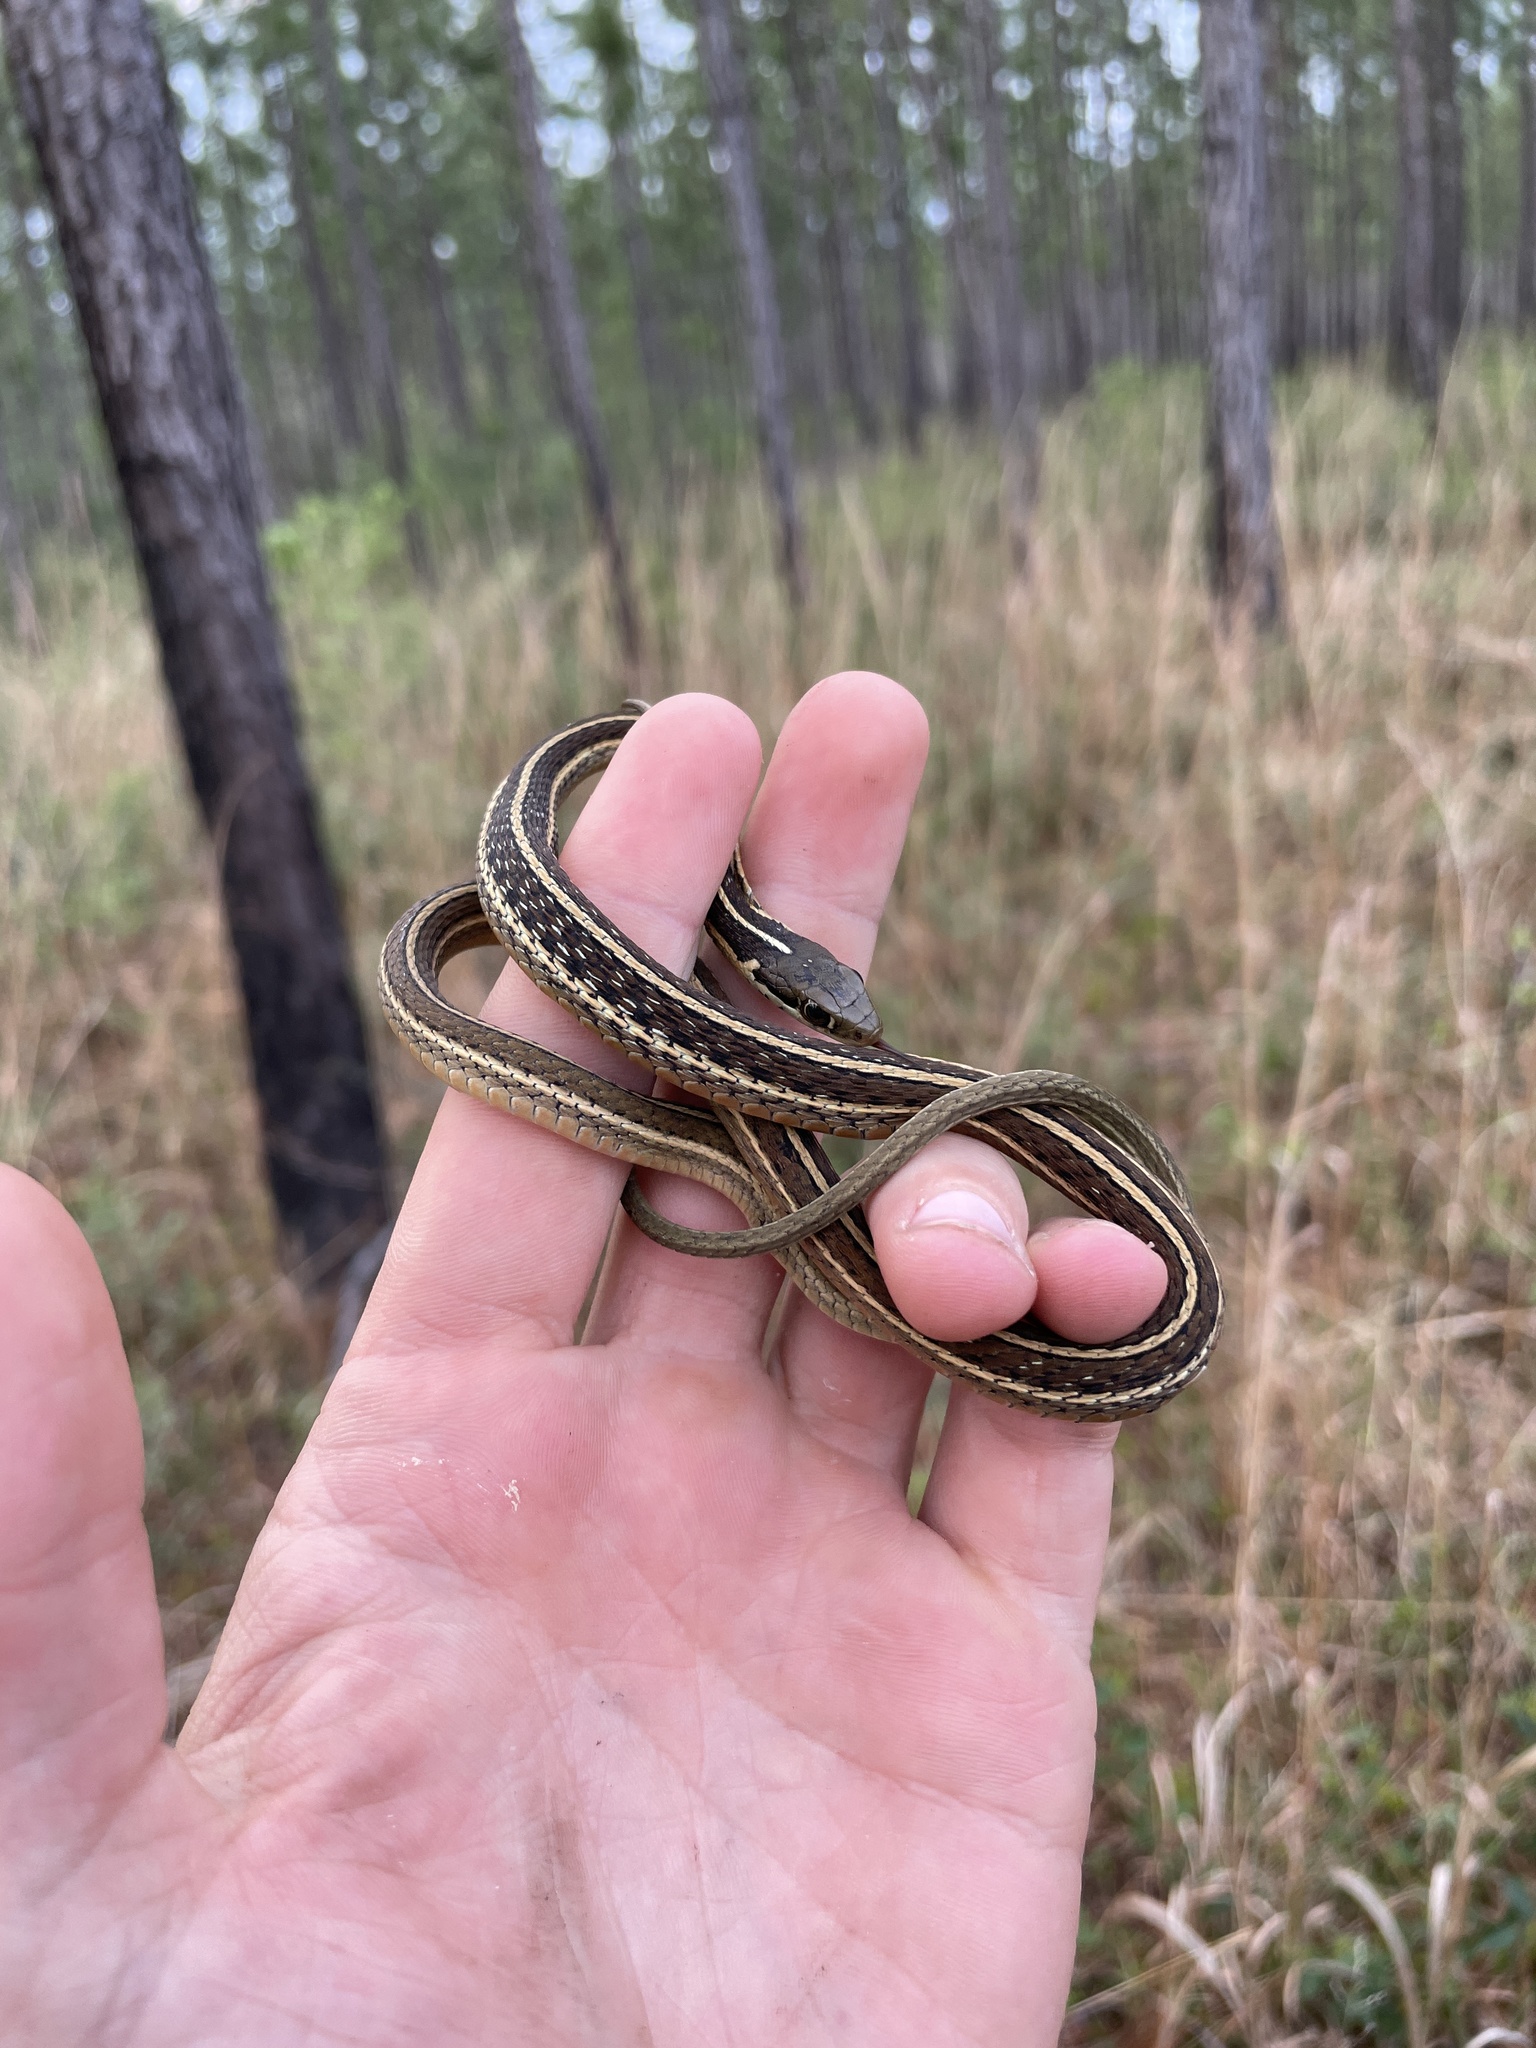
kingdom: Animalia
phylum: Chordata
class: Squamata
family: Colubridae
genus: Thamnophis
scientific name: Thamnophis saurita
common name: Eastern ribbonsnake
